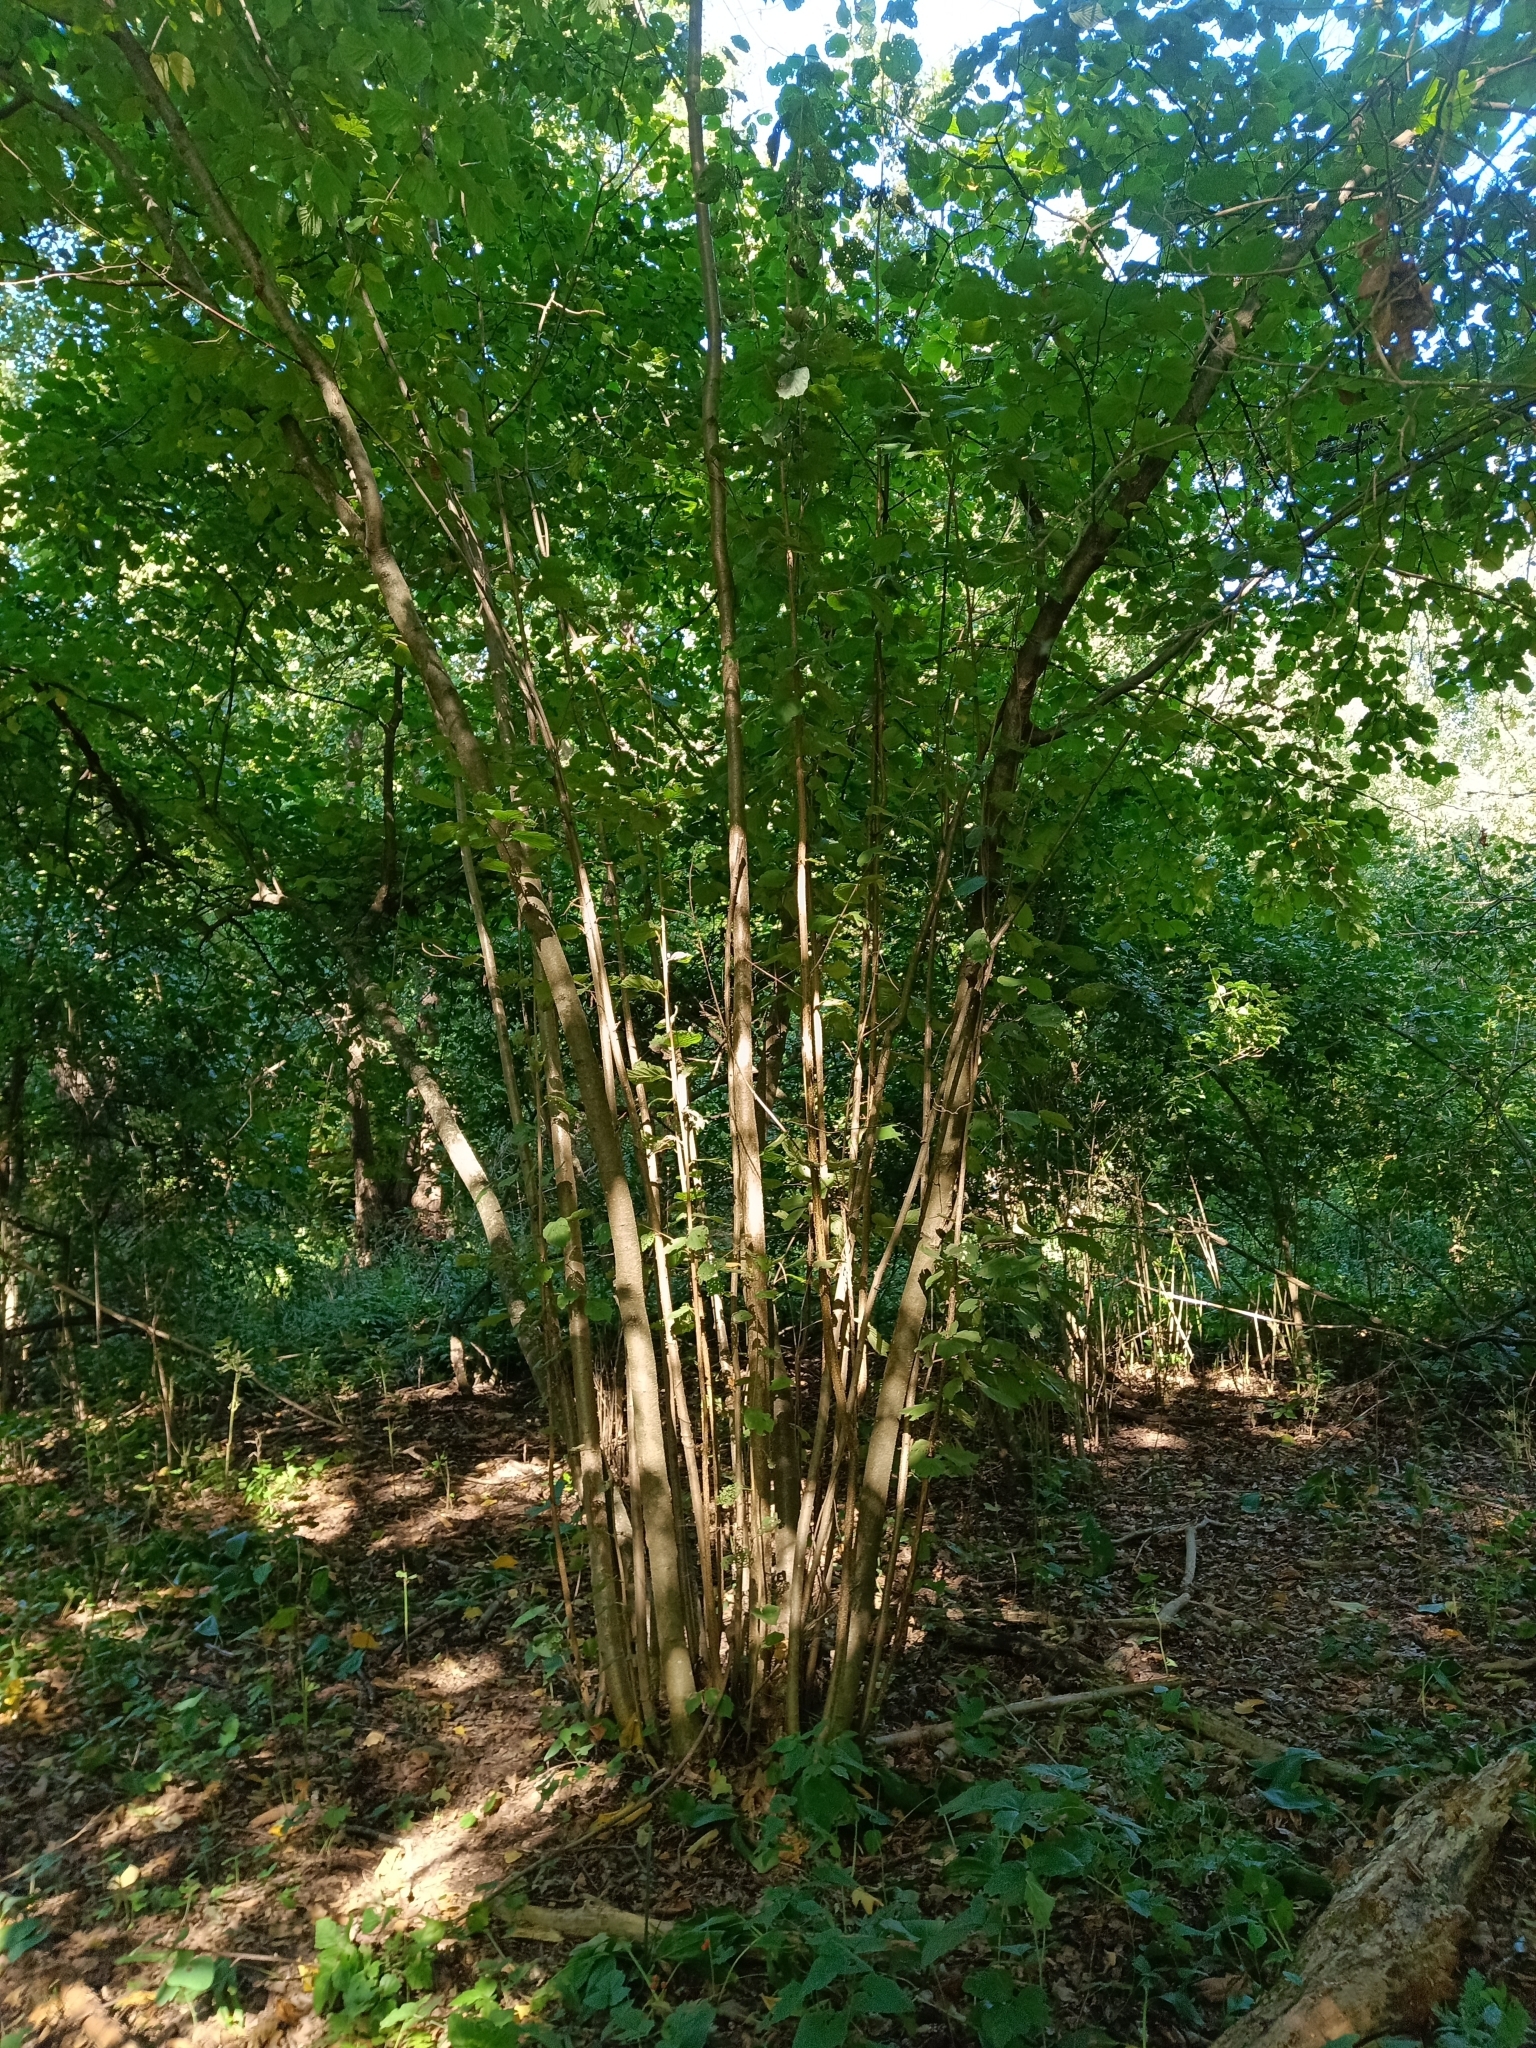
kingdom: Plantae
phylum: Tracheophyta
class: Magnoliopsida
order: Fagales
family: Betulaceae
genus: Corylus
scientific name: Corylus avellana
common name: European hazel
